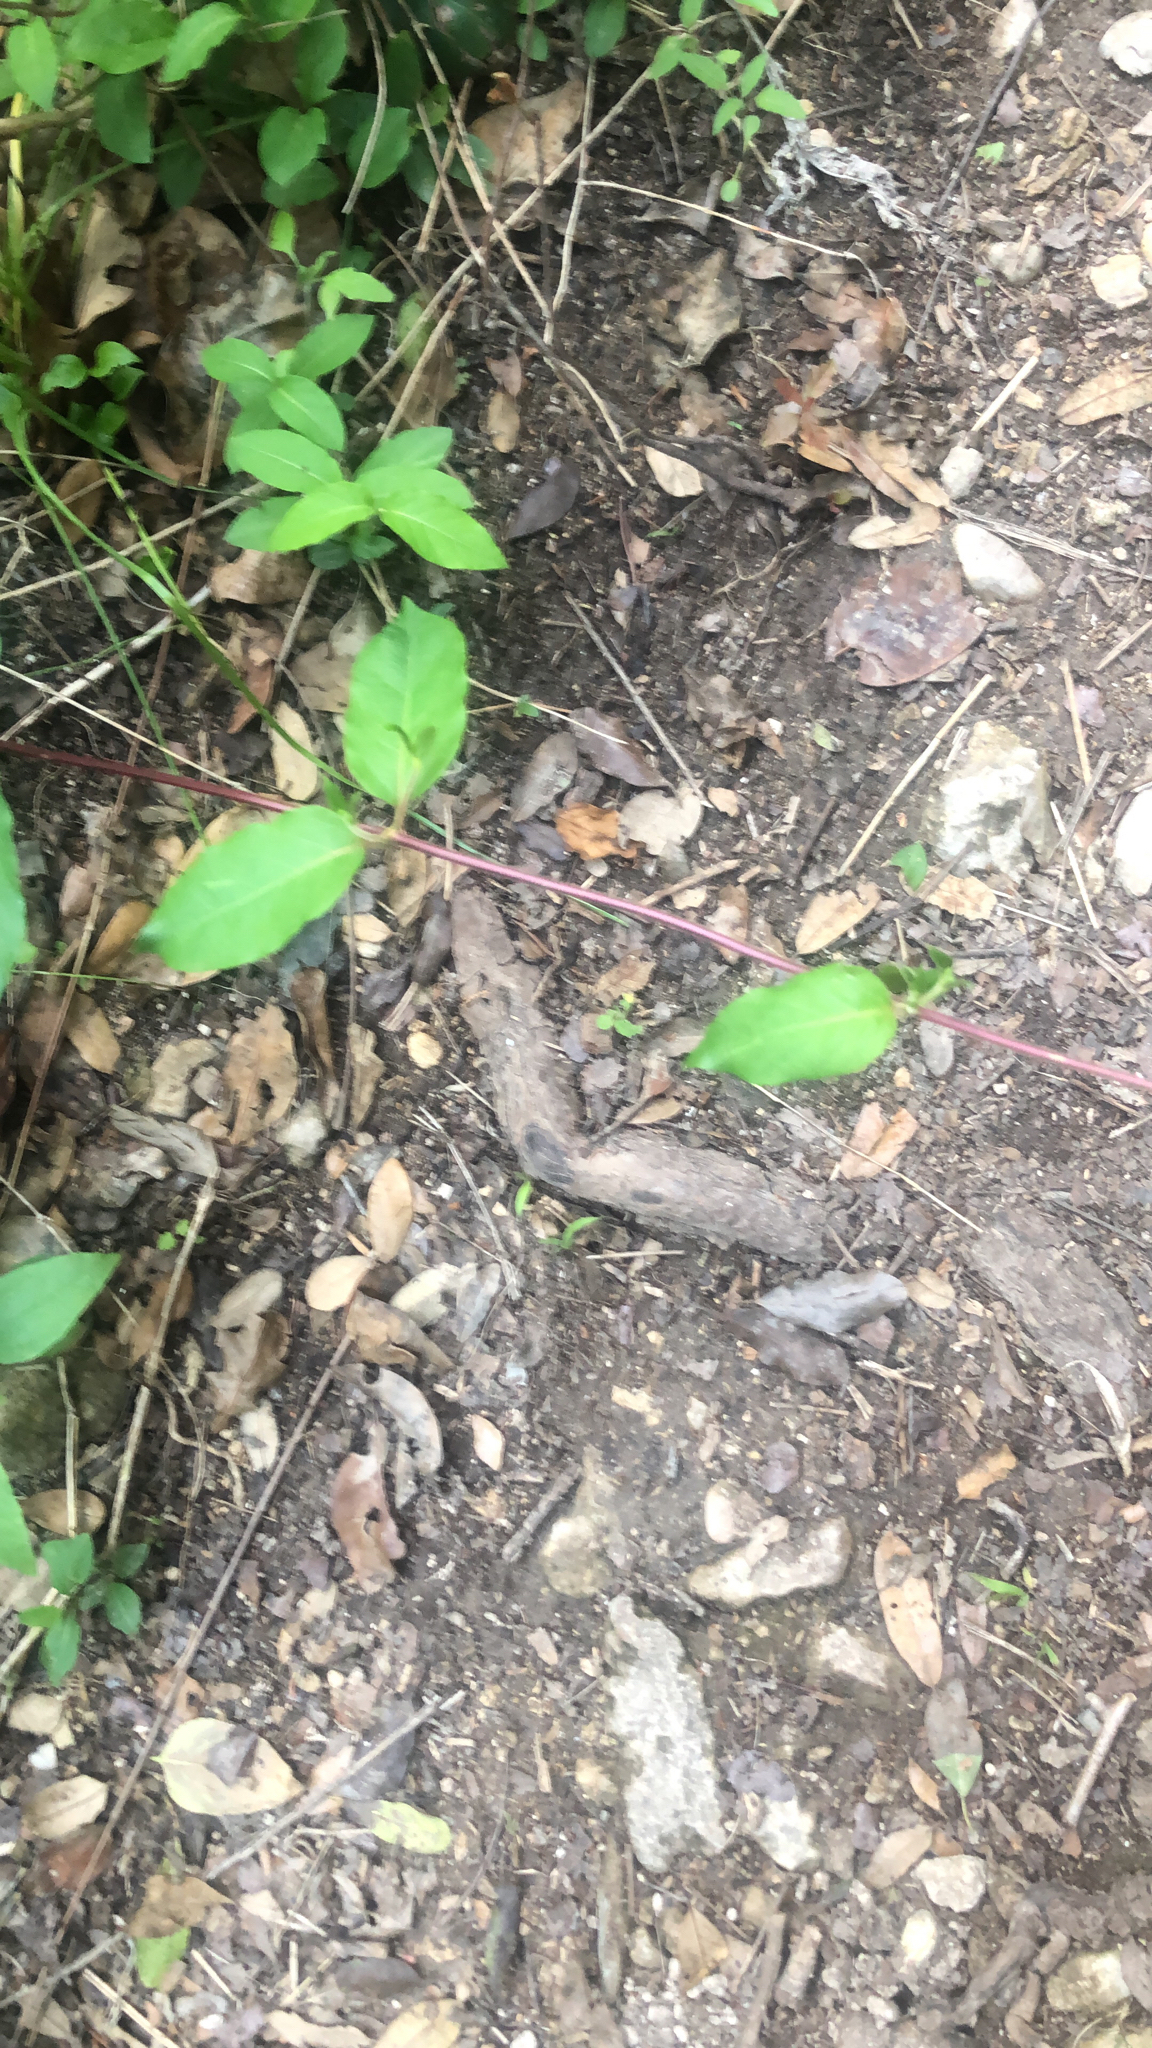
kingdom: Plantae
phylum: Tracheophyta
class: Magnoliopsida
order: Dipsacales
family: Caprifoliaceae
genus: Lonicera
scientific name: Lonicera japonica
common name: Japanese honeysuckle
